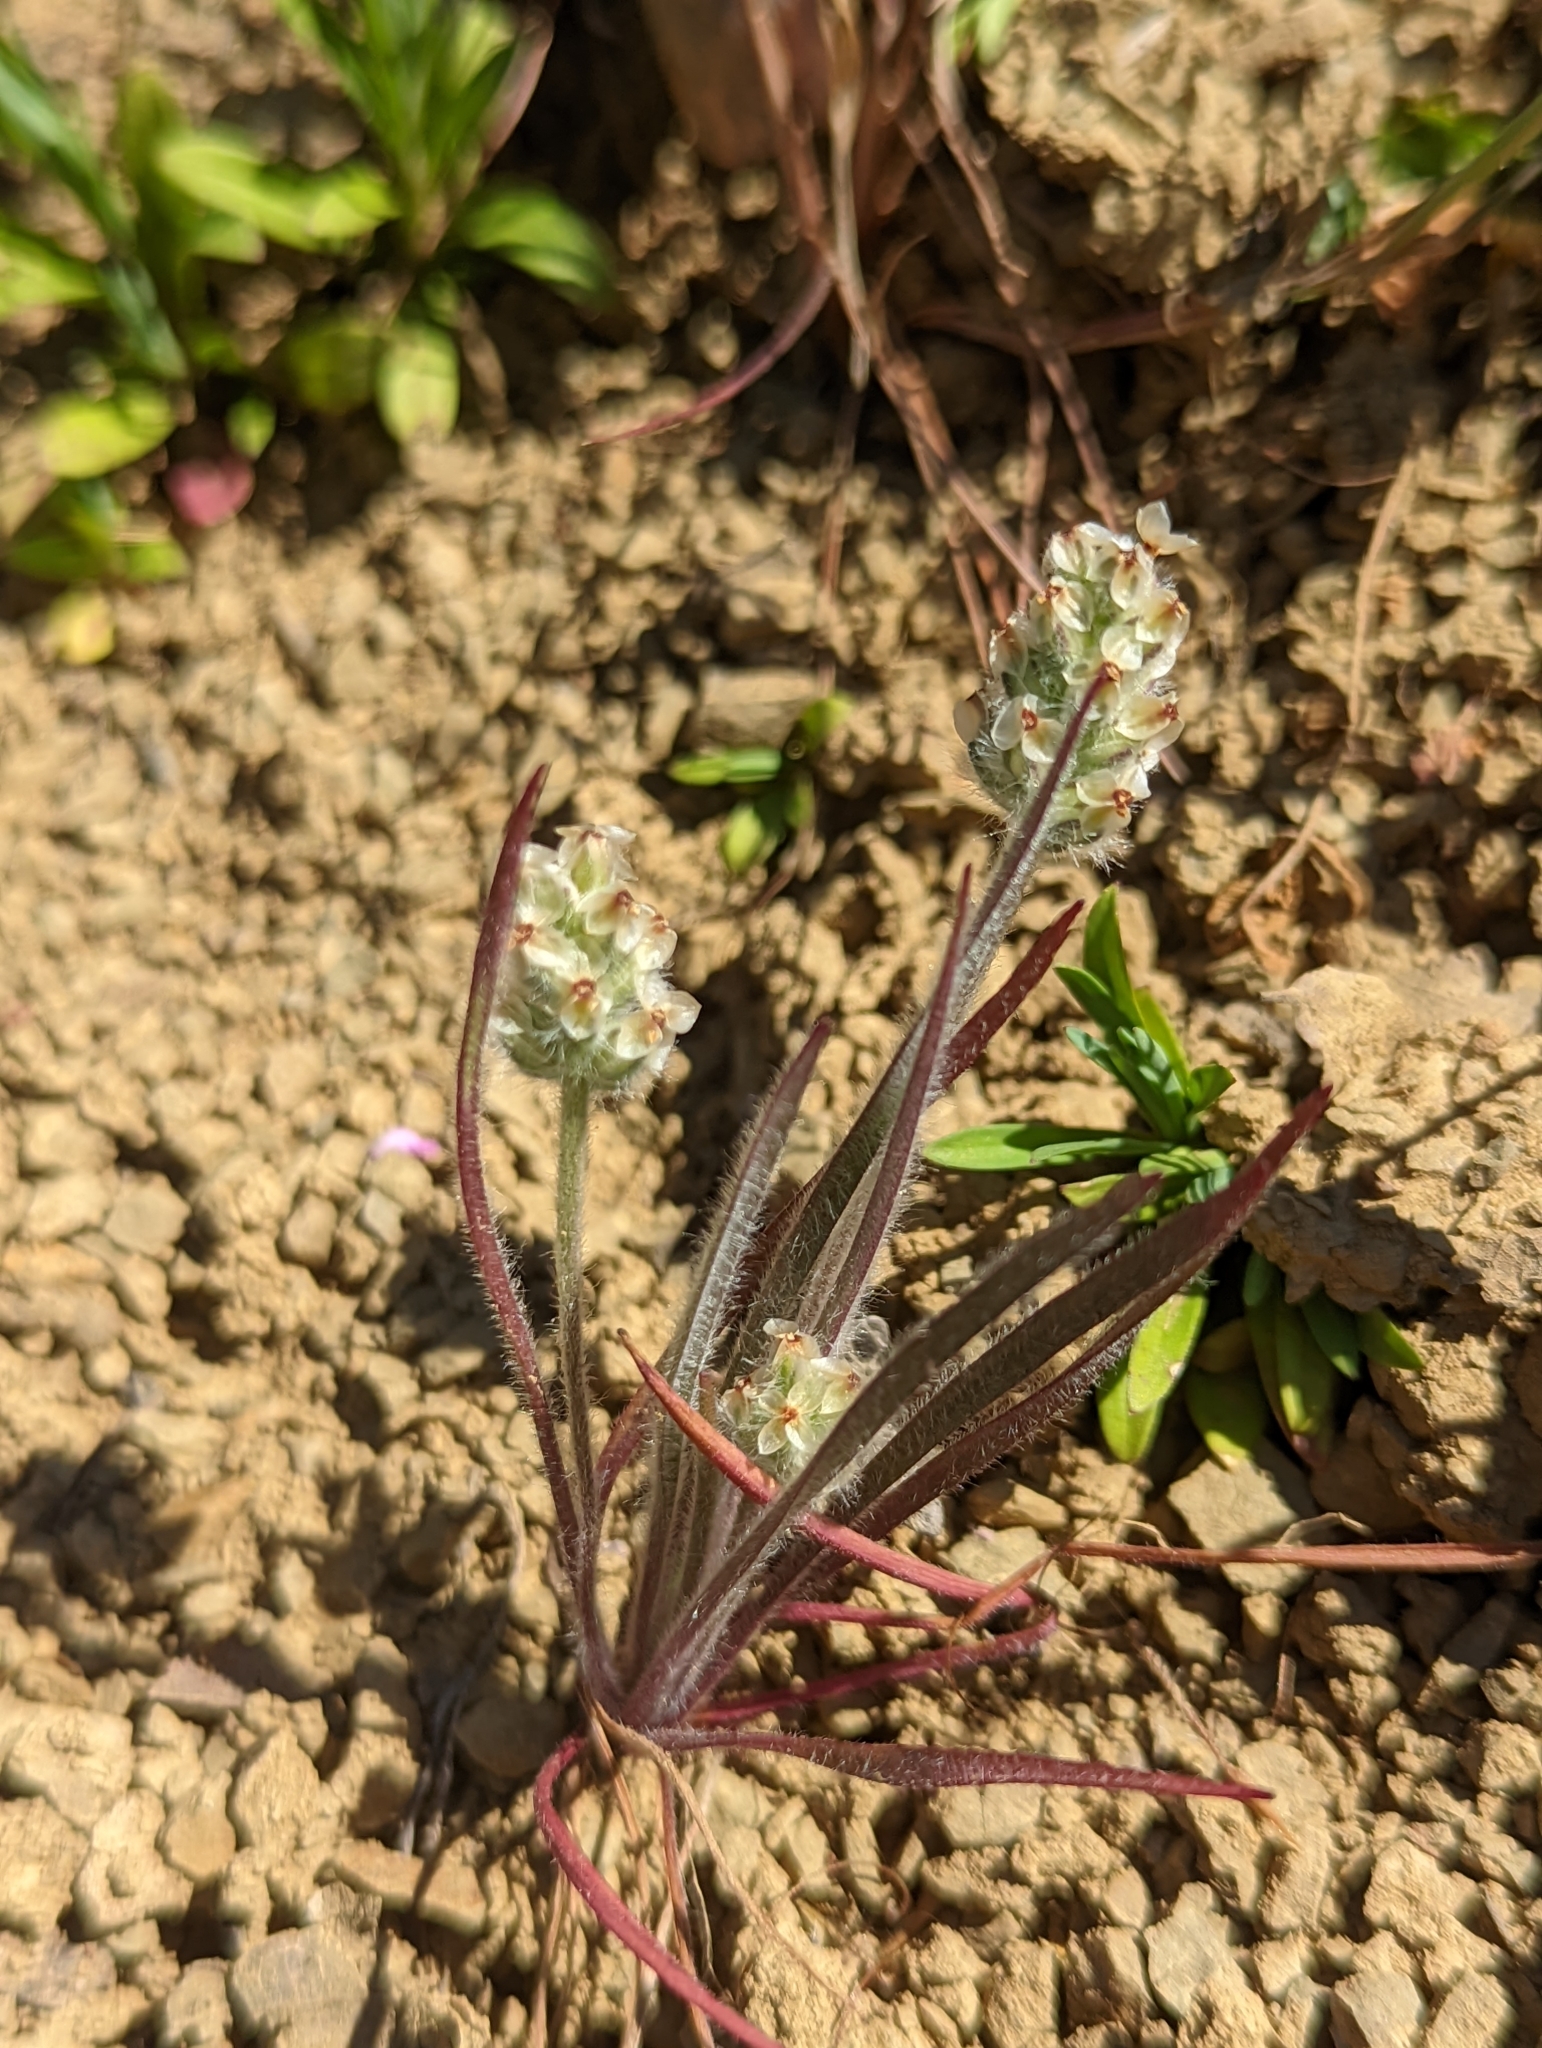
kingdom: Plantae
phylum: Tracheophyta
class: Magnoliopsida
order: Lamiales
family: Plantaginaceae
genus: Plantago
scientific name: Plantago erecta
